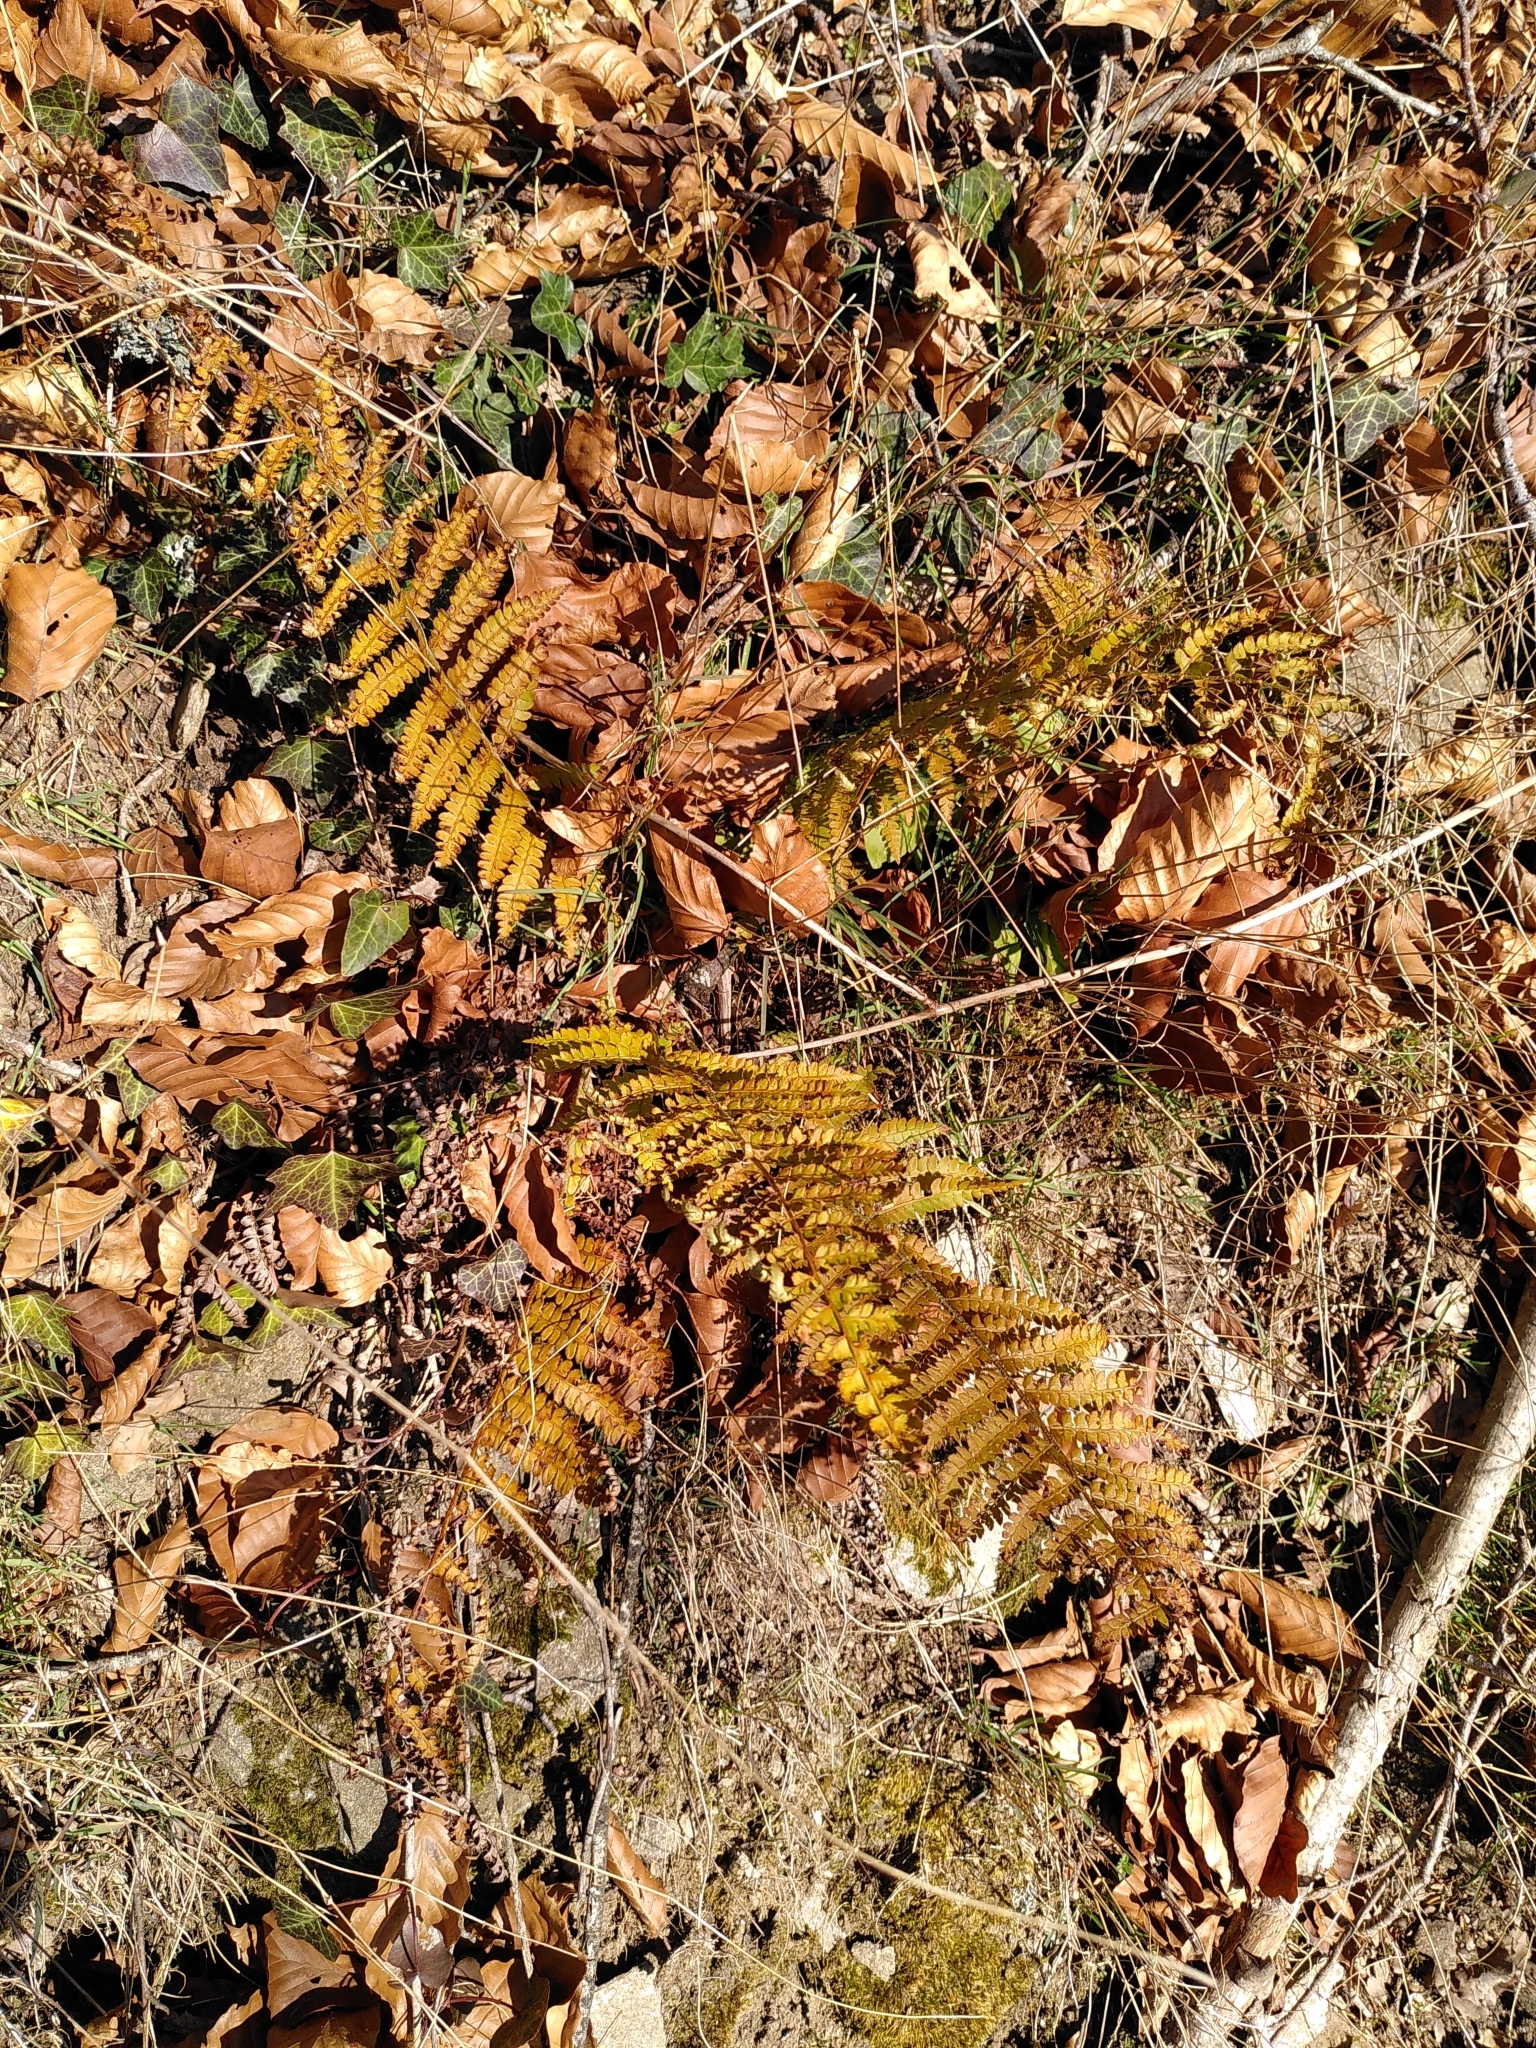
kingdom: Plantae
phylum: Tracheophyta
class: Polypodiopsida
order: Polypodiales
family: Dryopteridaceae
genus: Polystichum
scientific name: Polystichum setiferum
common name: Soft shield-fern
